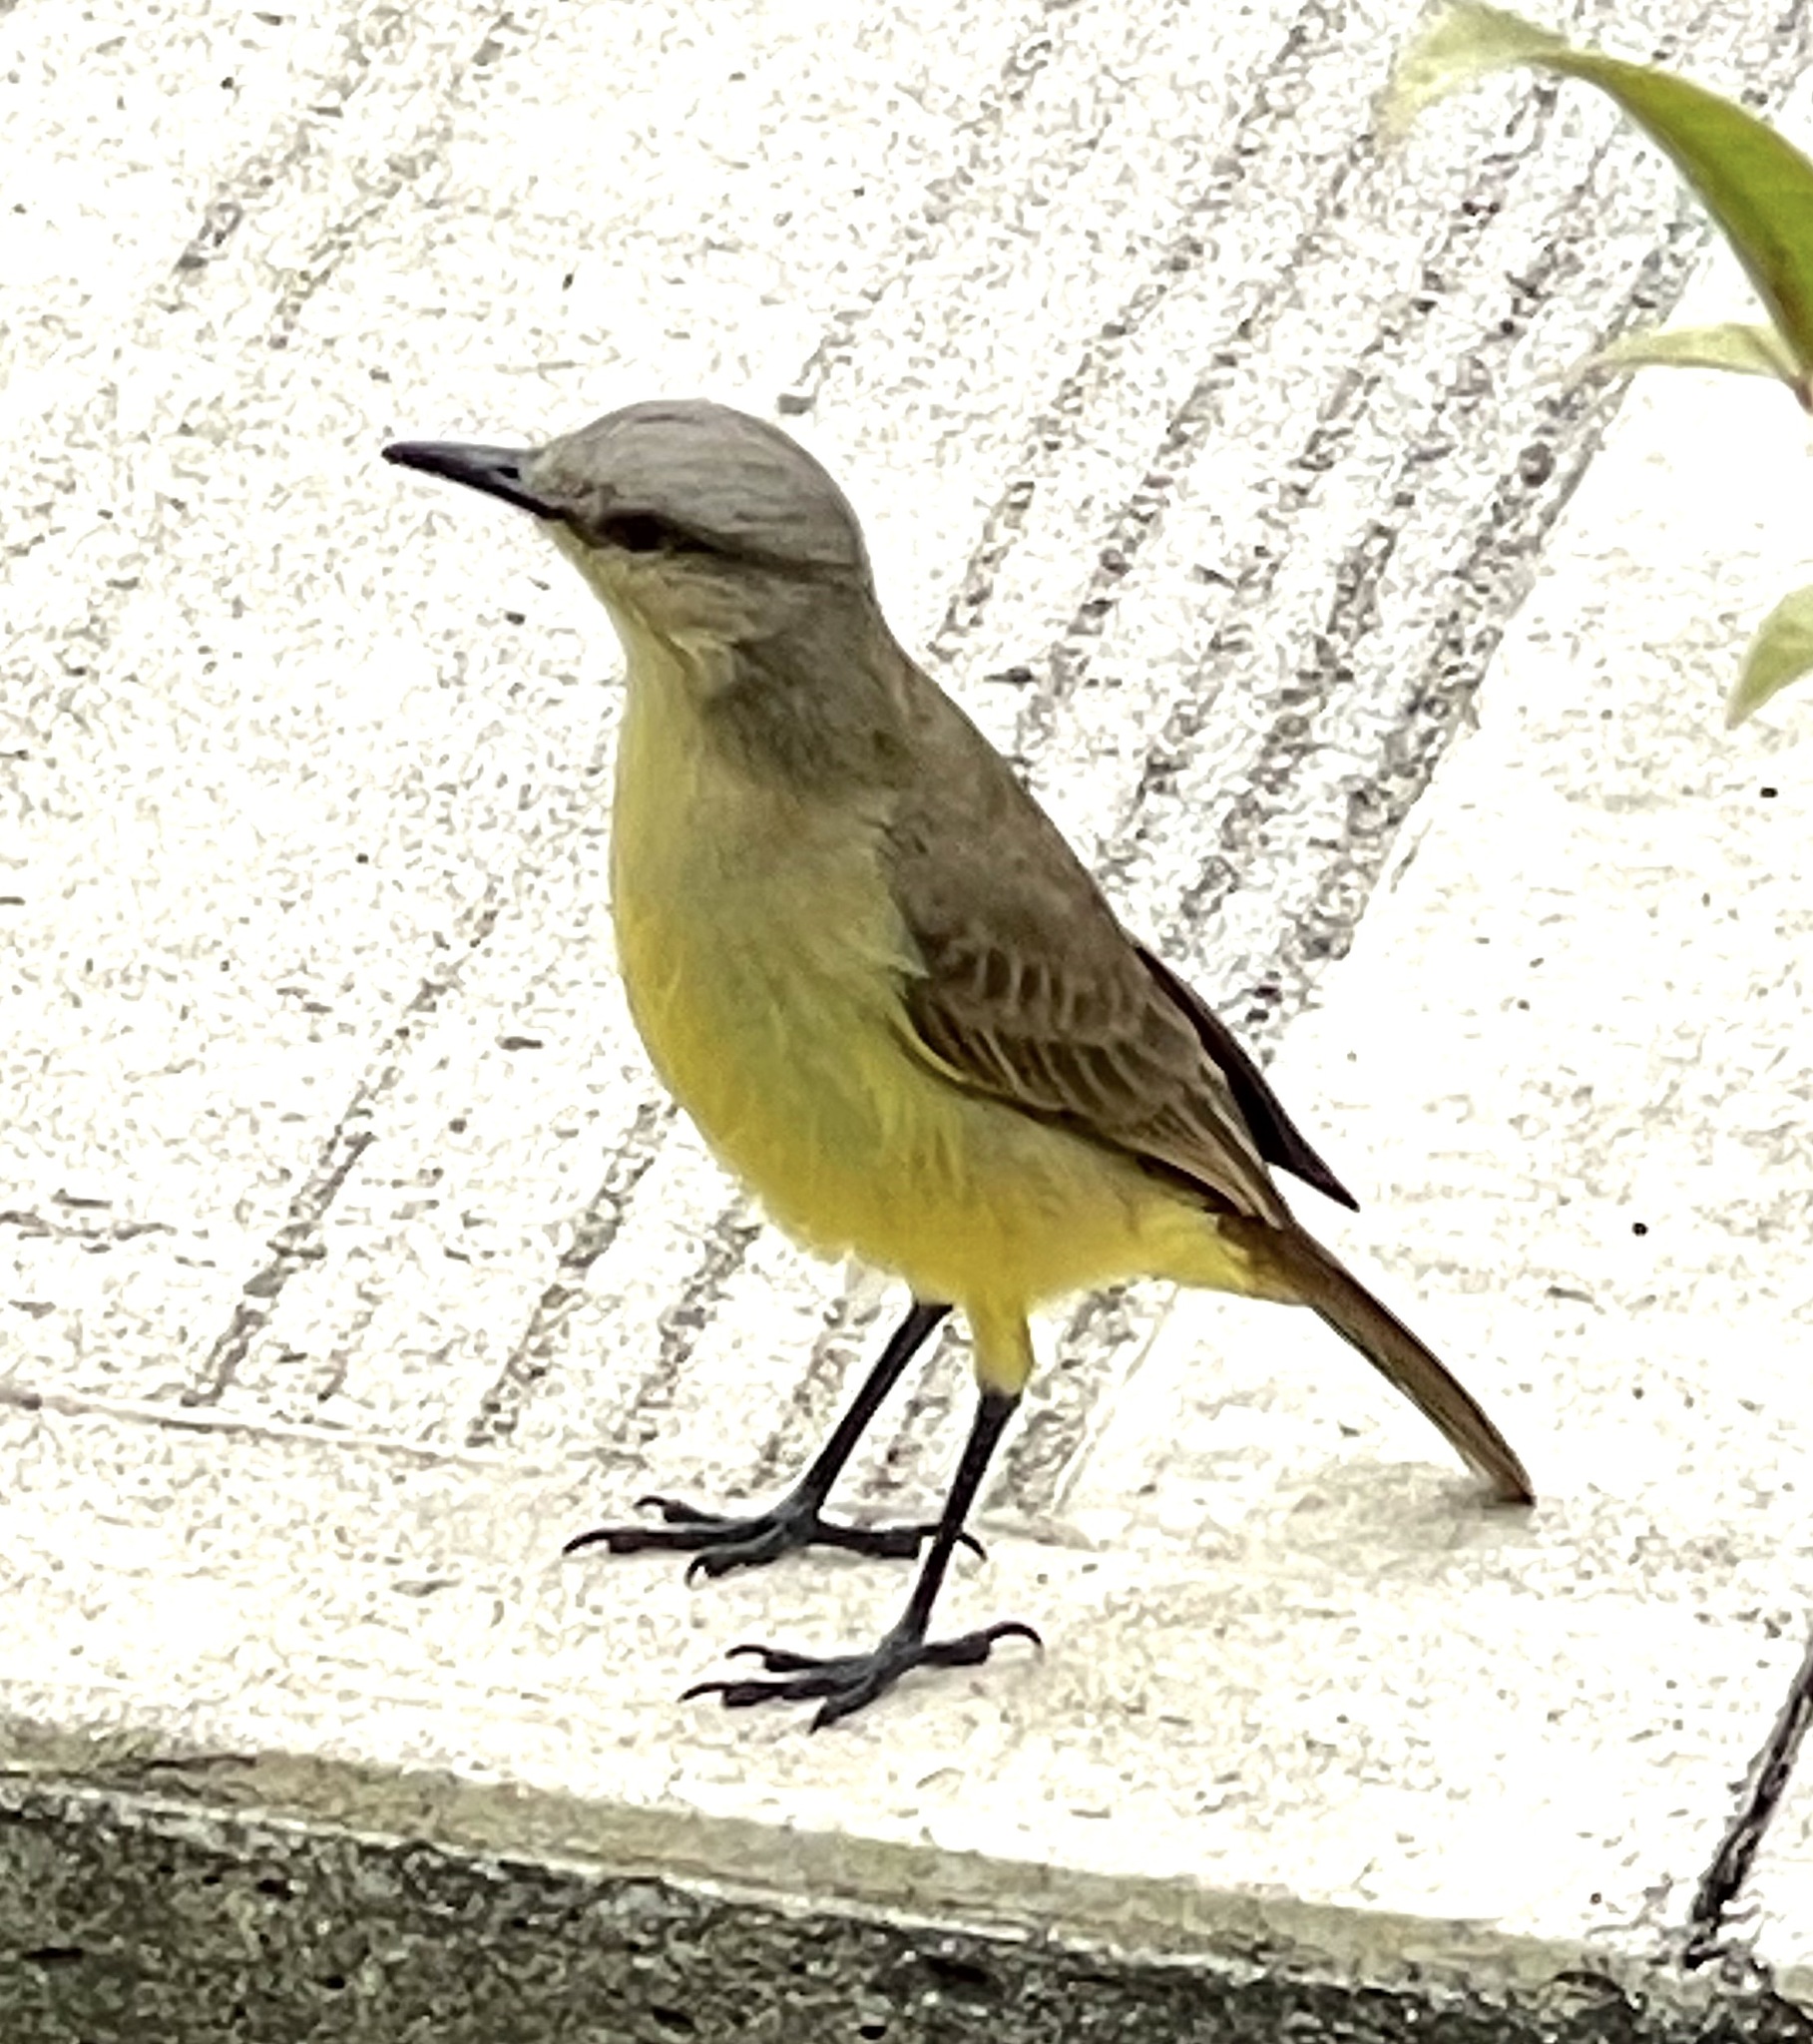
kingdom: Animalia
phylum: Chordata
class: Aves
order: Passeriformes
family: Tyrannidae
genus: Machetornis
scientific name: Machetornis rixosa
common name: Cattle tyrant
